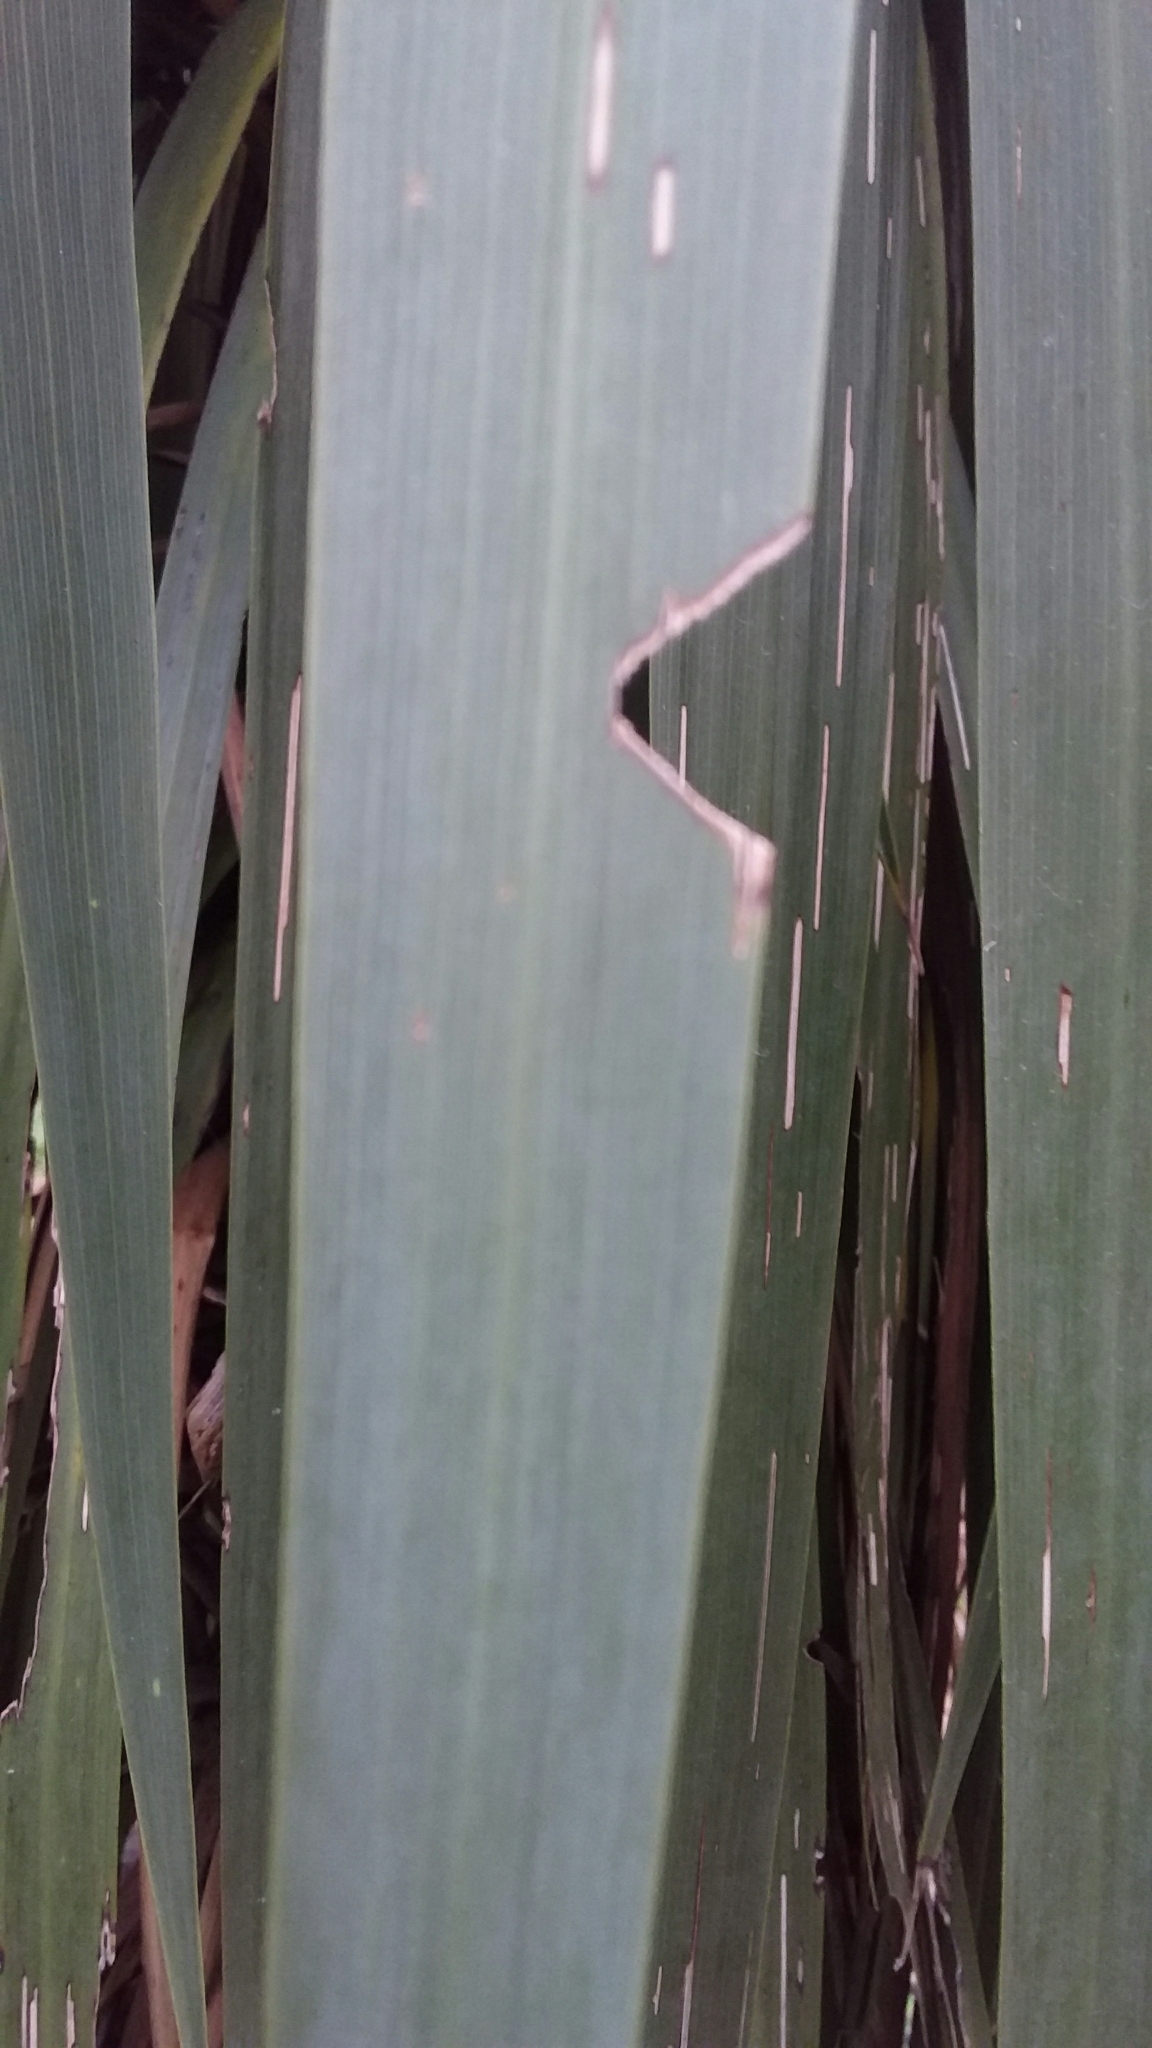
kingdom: Animalia
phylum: Arthropoda
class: Insecta
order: Lepidoptera
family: Geometridae
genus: Epiphryne
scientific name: Epiphryne verriculata
